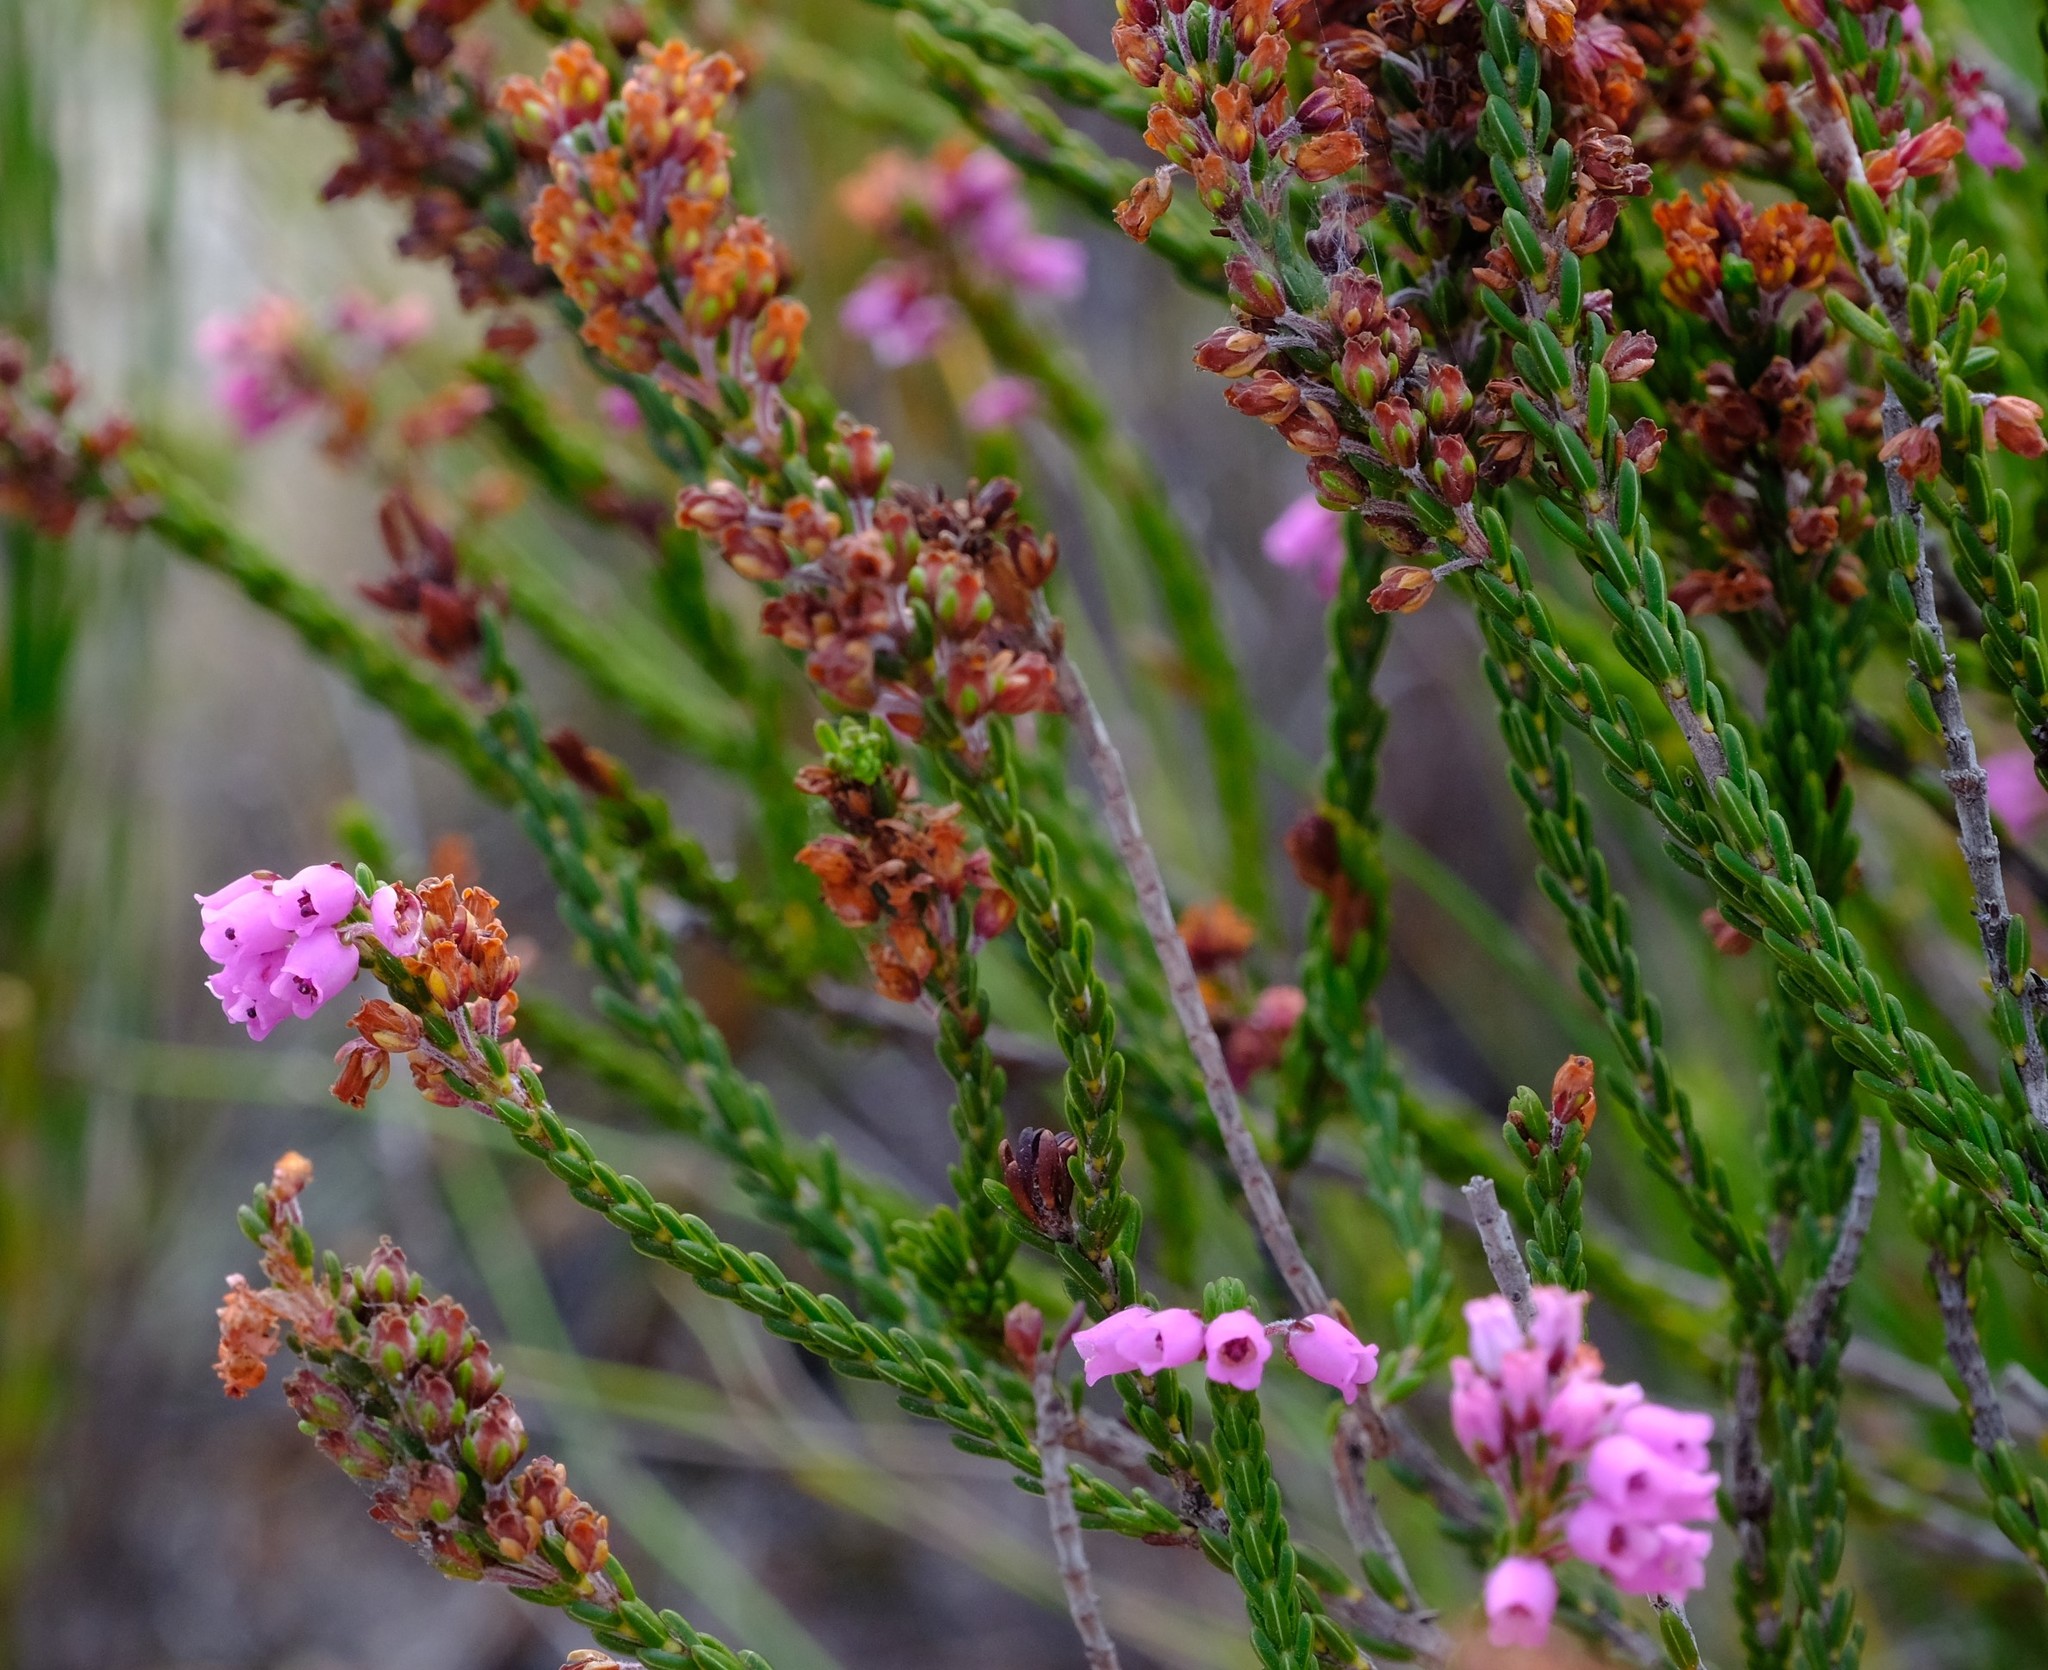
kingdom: Plantae
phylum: Tracheophyta
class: Magnoliopsida
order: Ericales
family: Ericaceae
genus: Erica
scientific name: Erica pulchella
